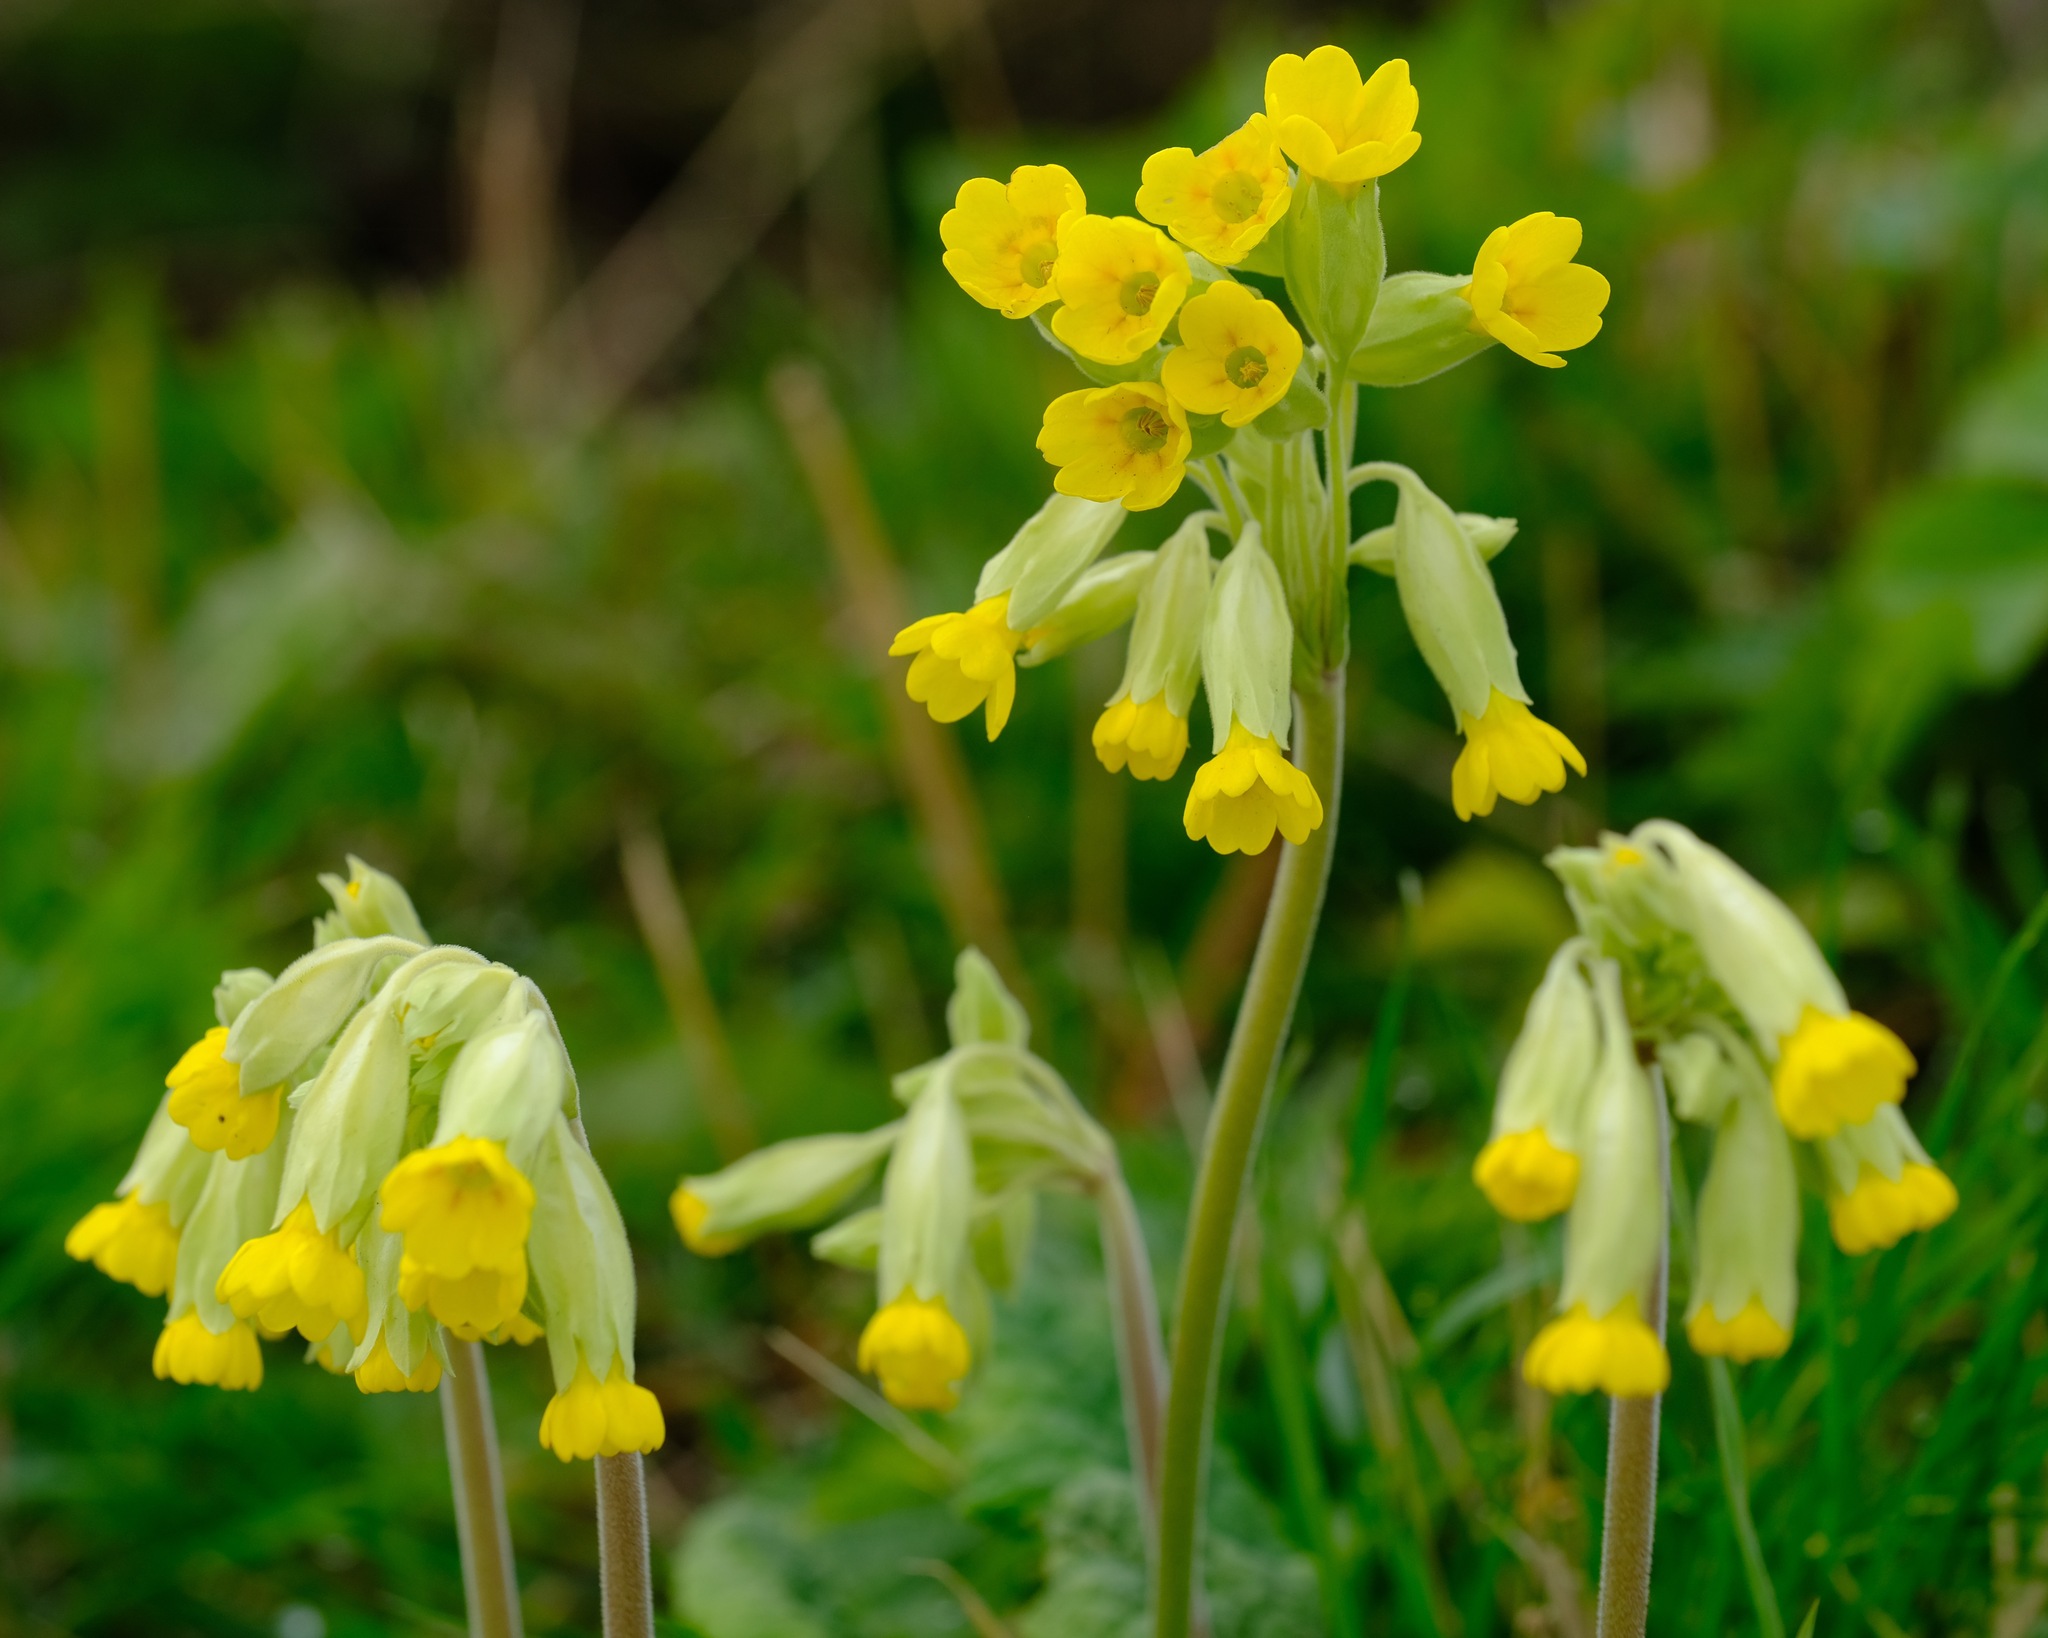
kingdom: Plantae
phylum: Tracheophyta
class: Magnoliopsida
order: Ericales
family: Primulaceae
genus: Primula
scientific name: Primula veris
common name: Cowslip
